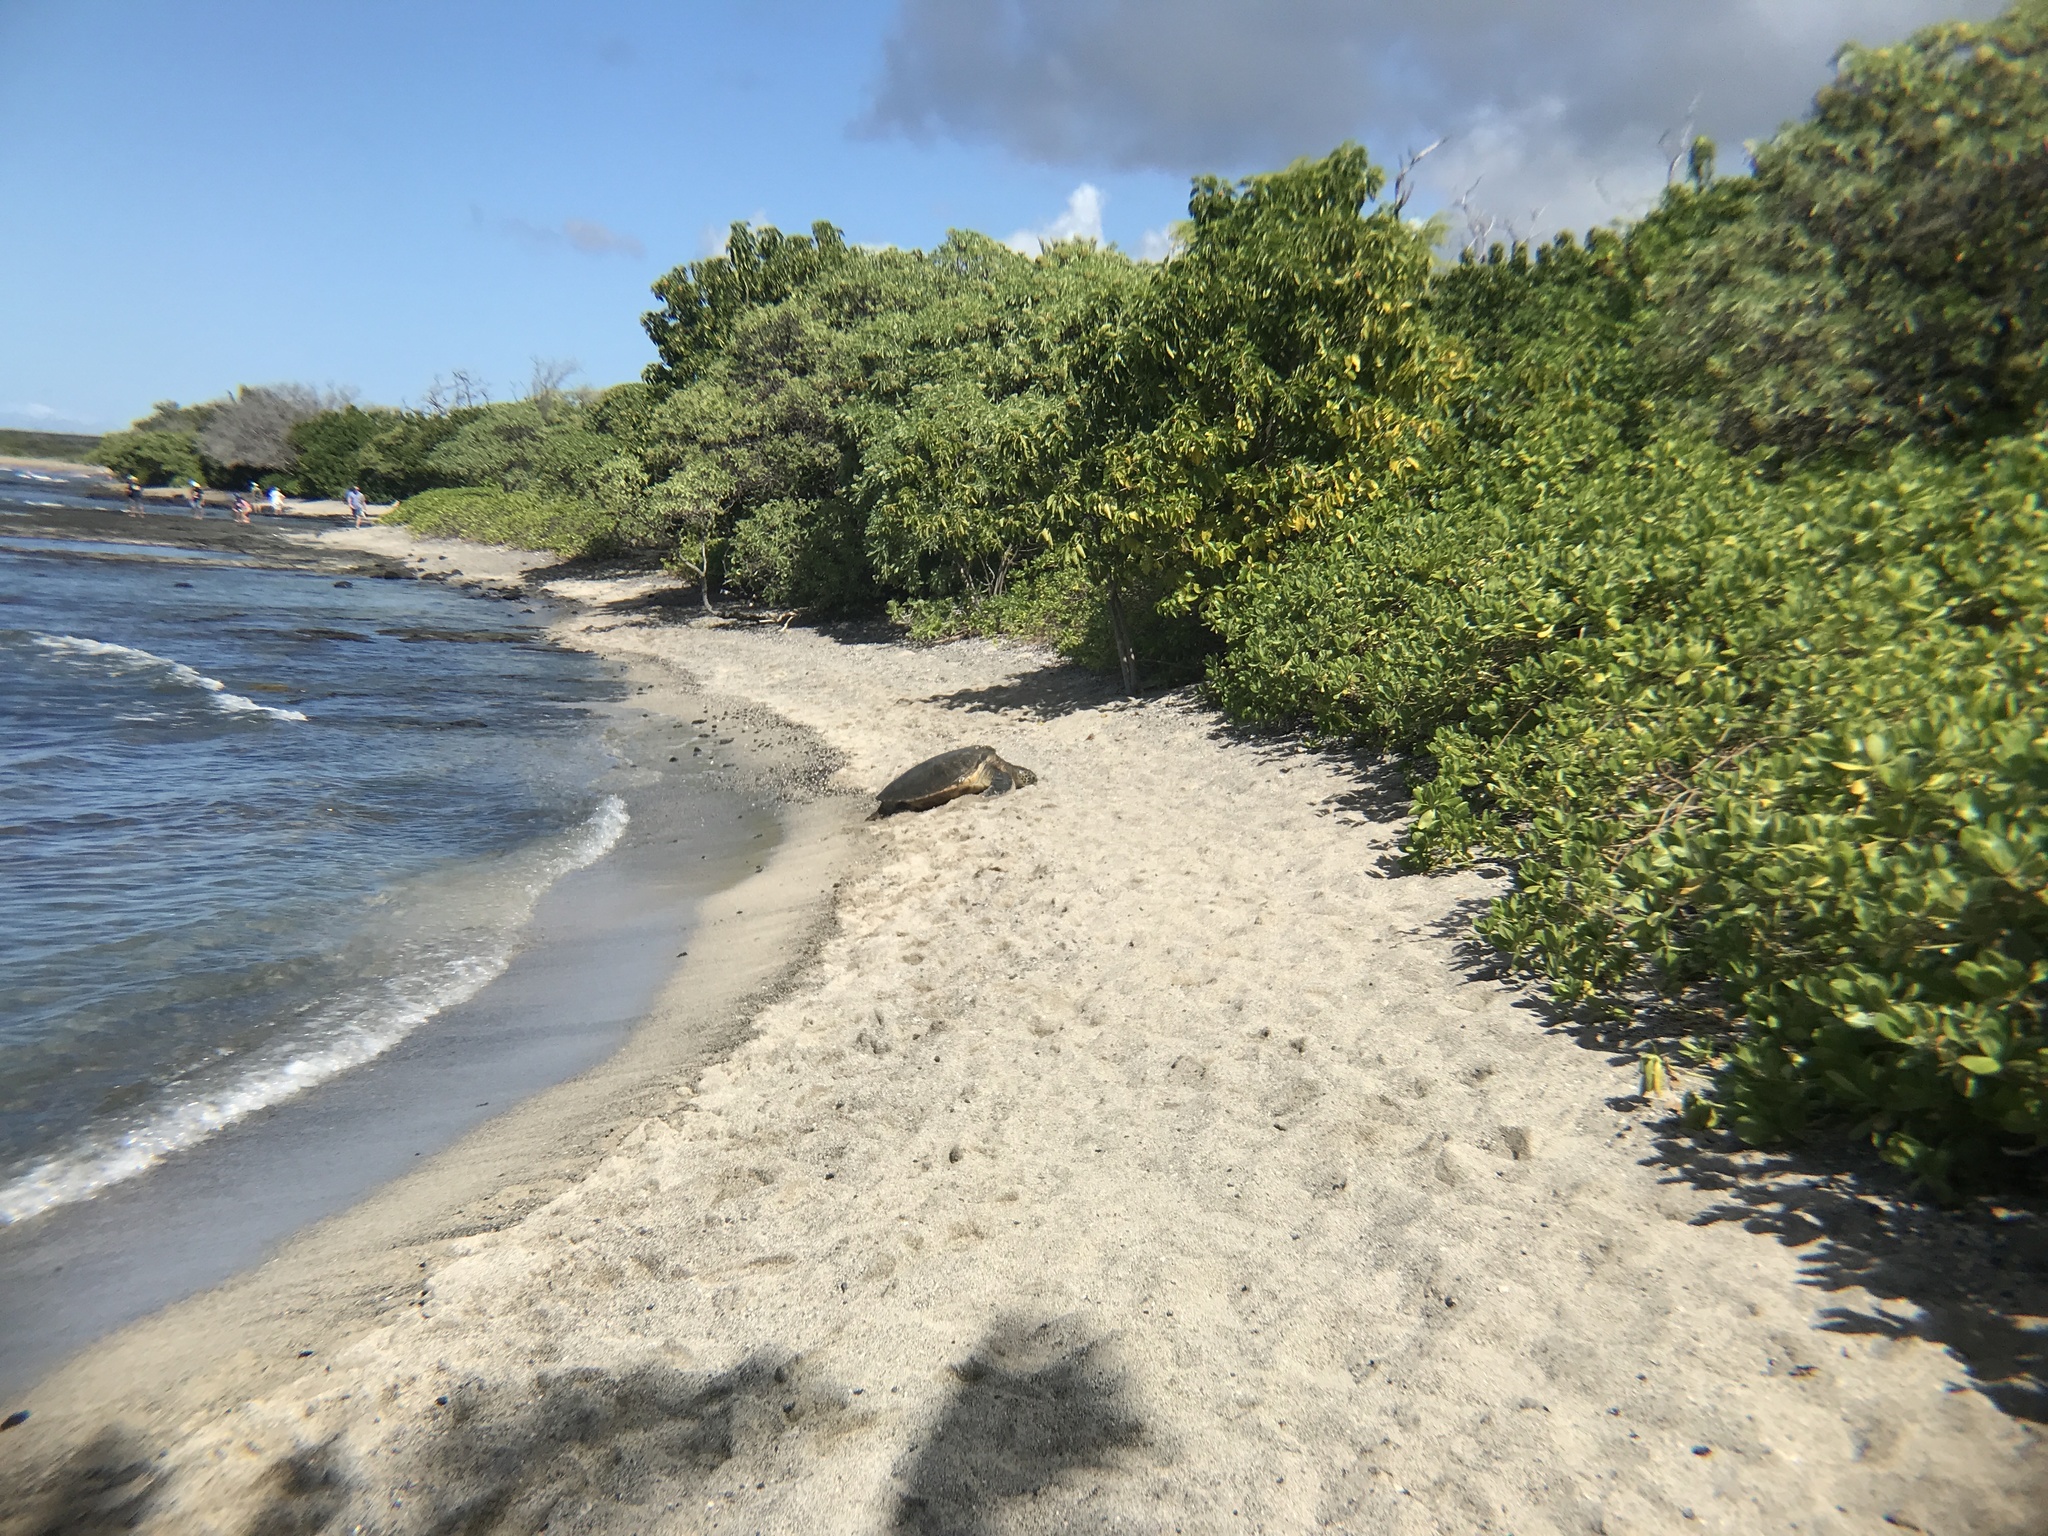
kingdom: Animalia
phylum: Chordata
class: Testudines
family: Cheloniidae
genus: Chelonia
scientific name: Chelonia mydas
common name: Green turtle
